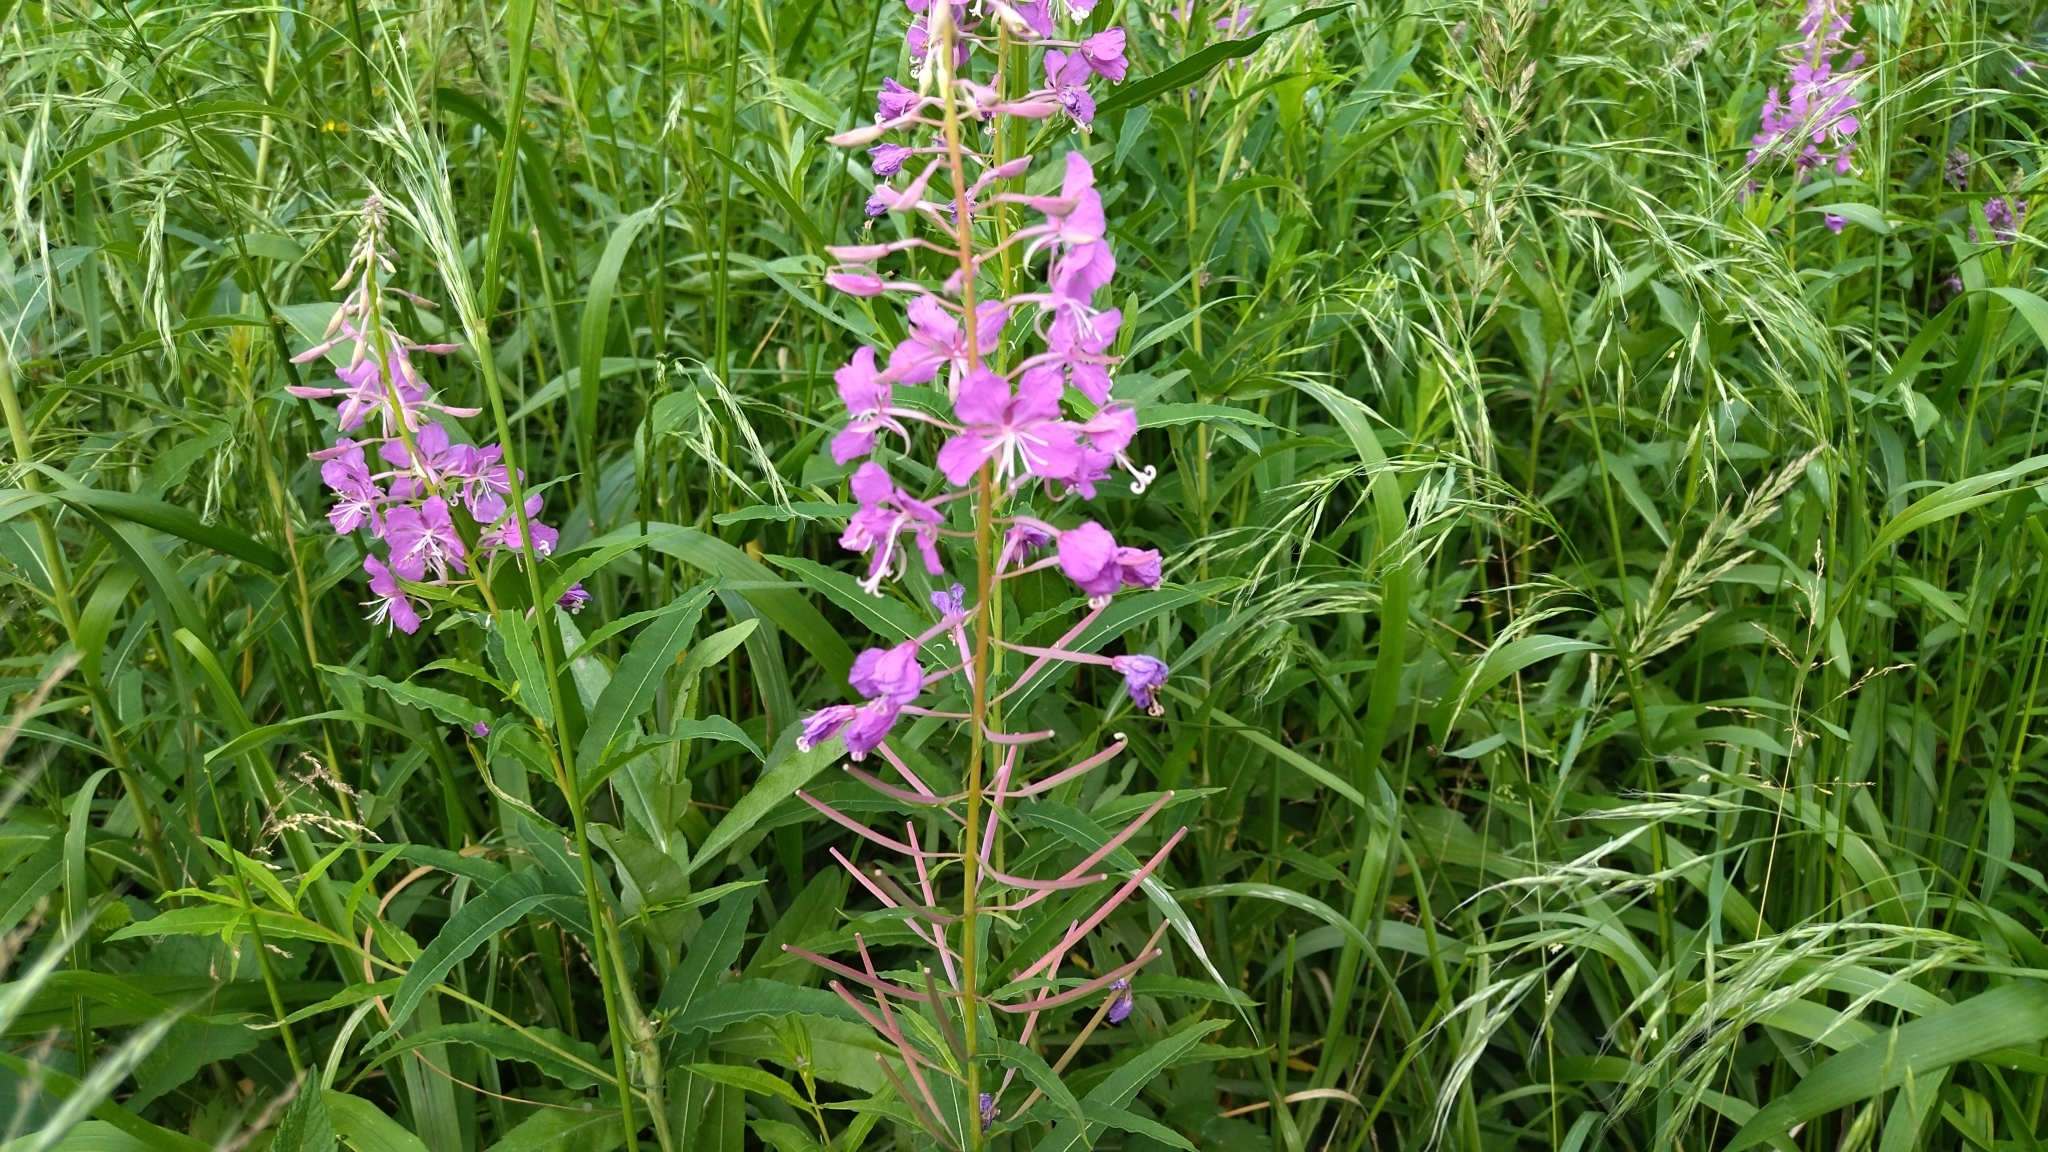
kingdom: Plantae
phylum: Tracheophyta
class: Magnoliopsida
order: Myrtales
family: Onagraceae
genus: Chamaenerion
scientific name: Chamaenerion angustifolium
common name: Fireweed
